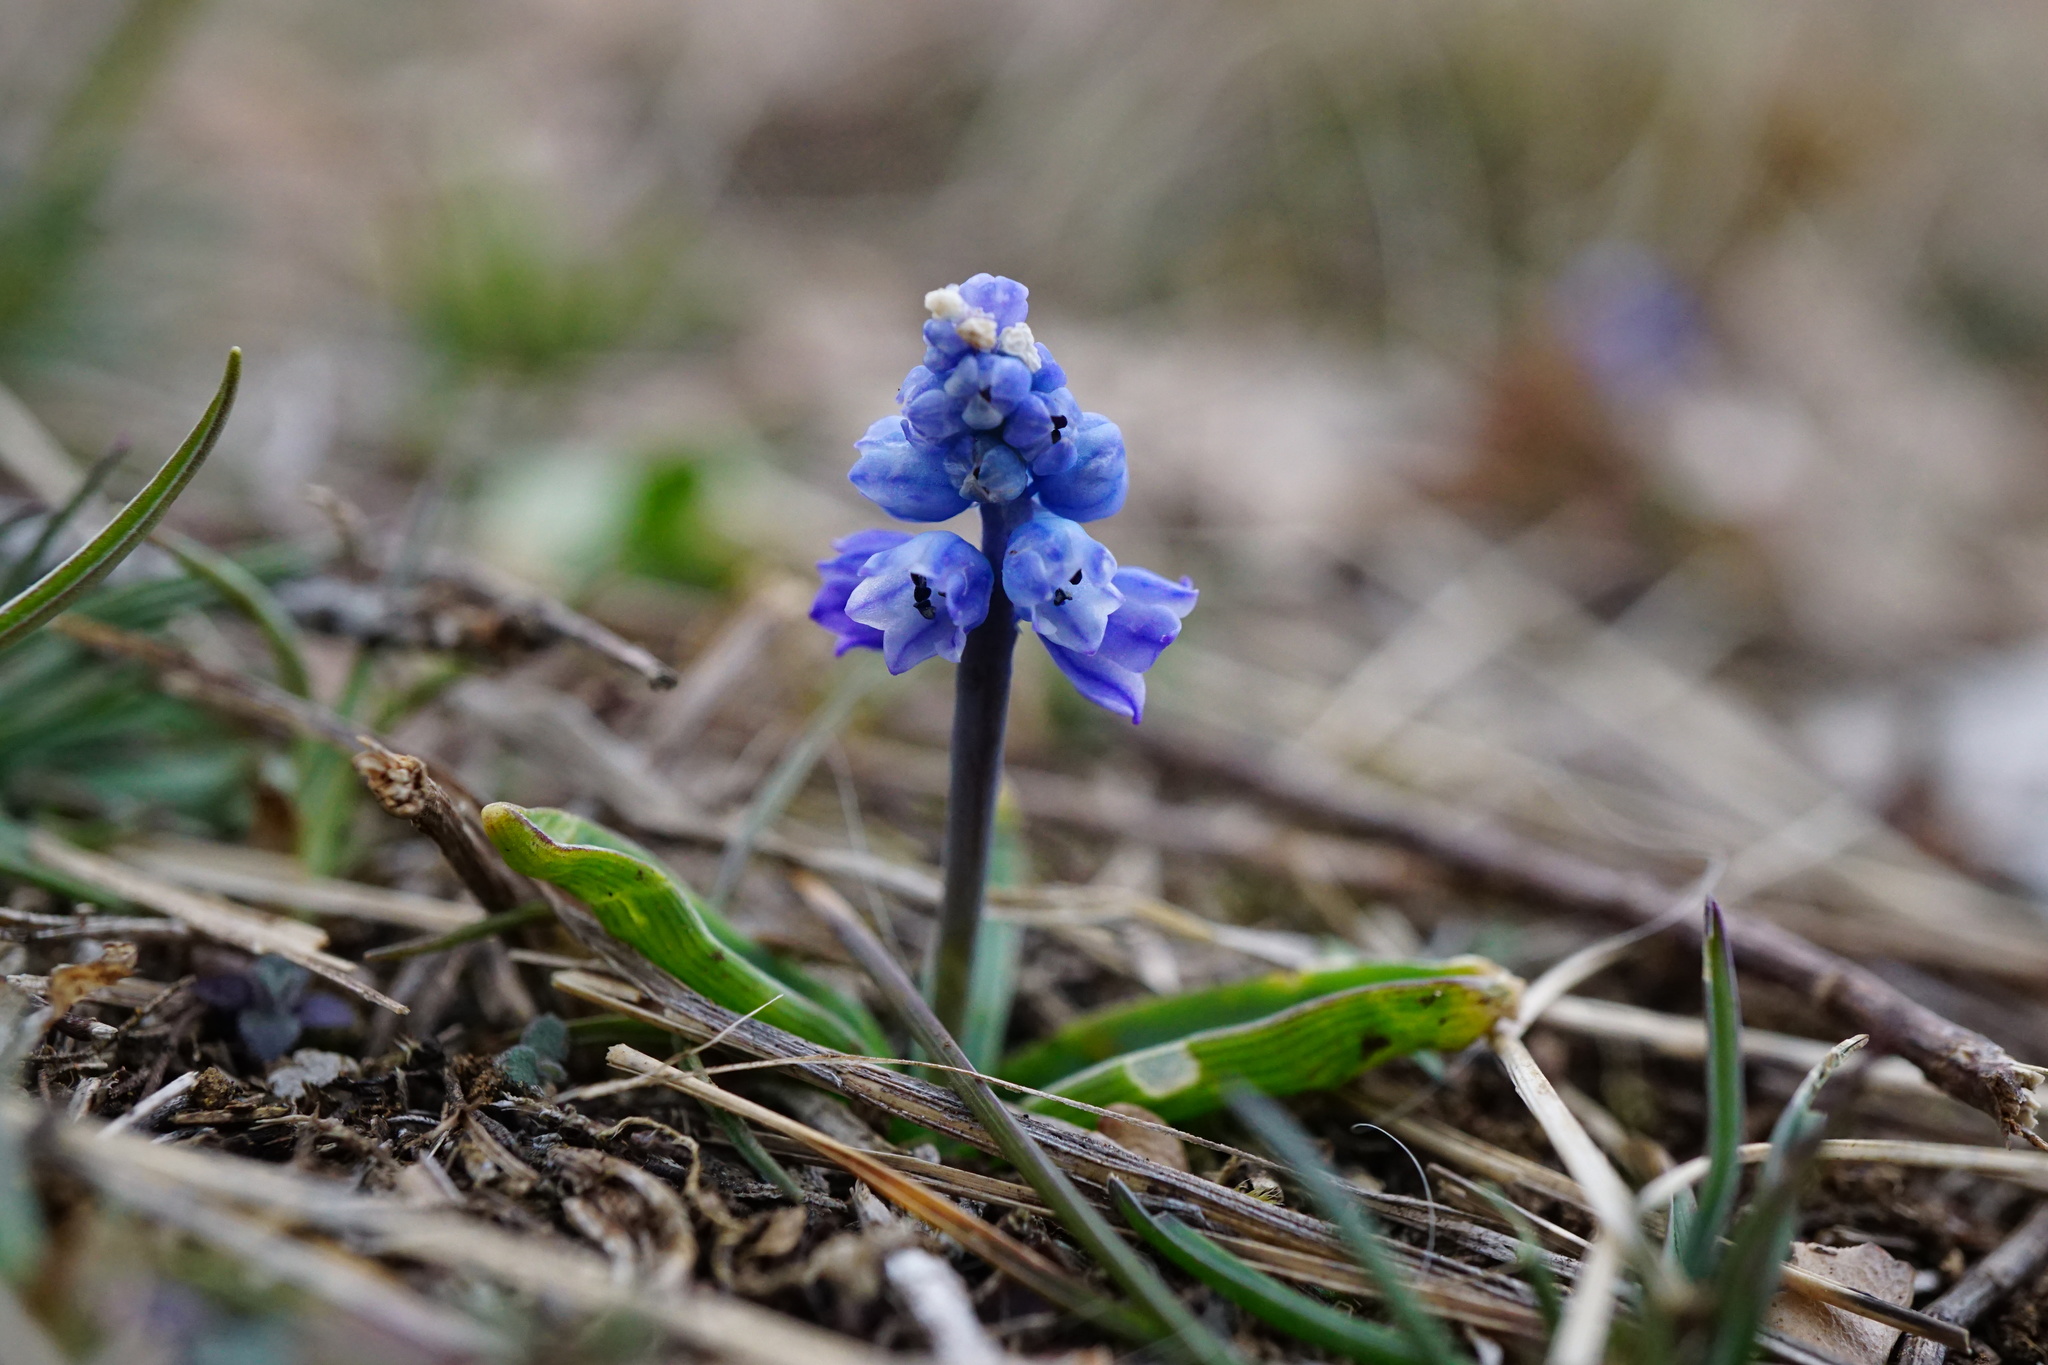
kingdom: Plantae
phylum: Tracheophyta
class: Liliopsida
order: Asparagales
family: Asparagaceae
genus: Muscari
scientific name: Muscari azureum
